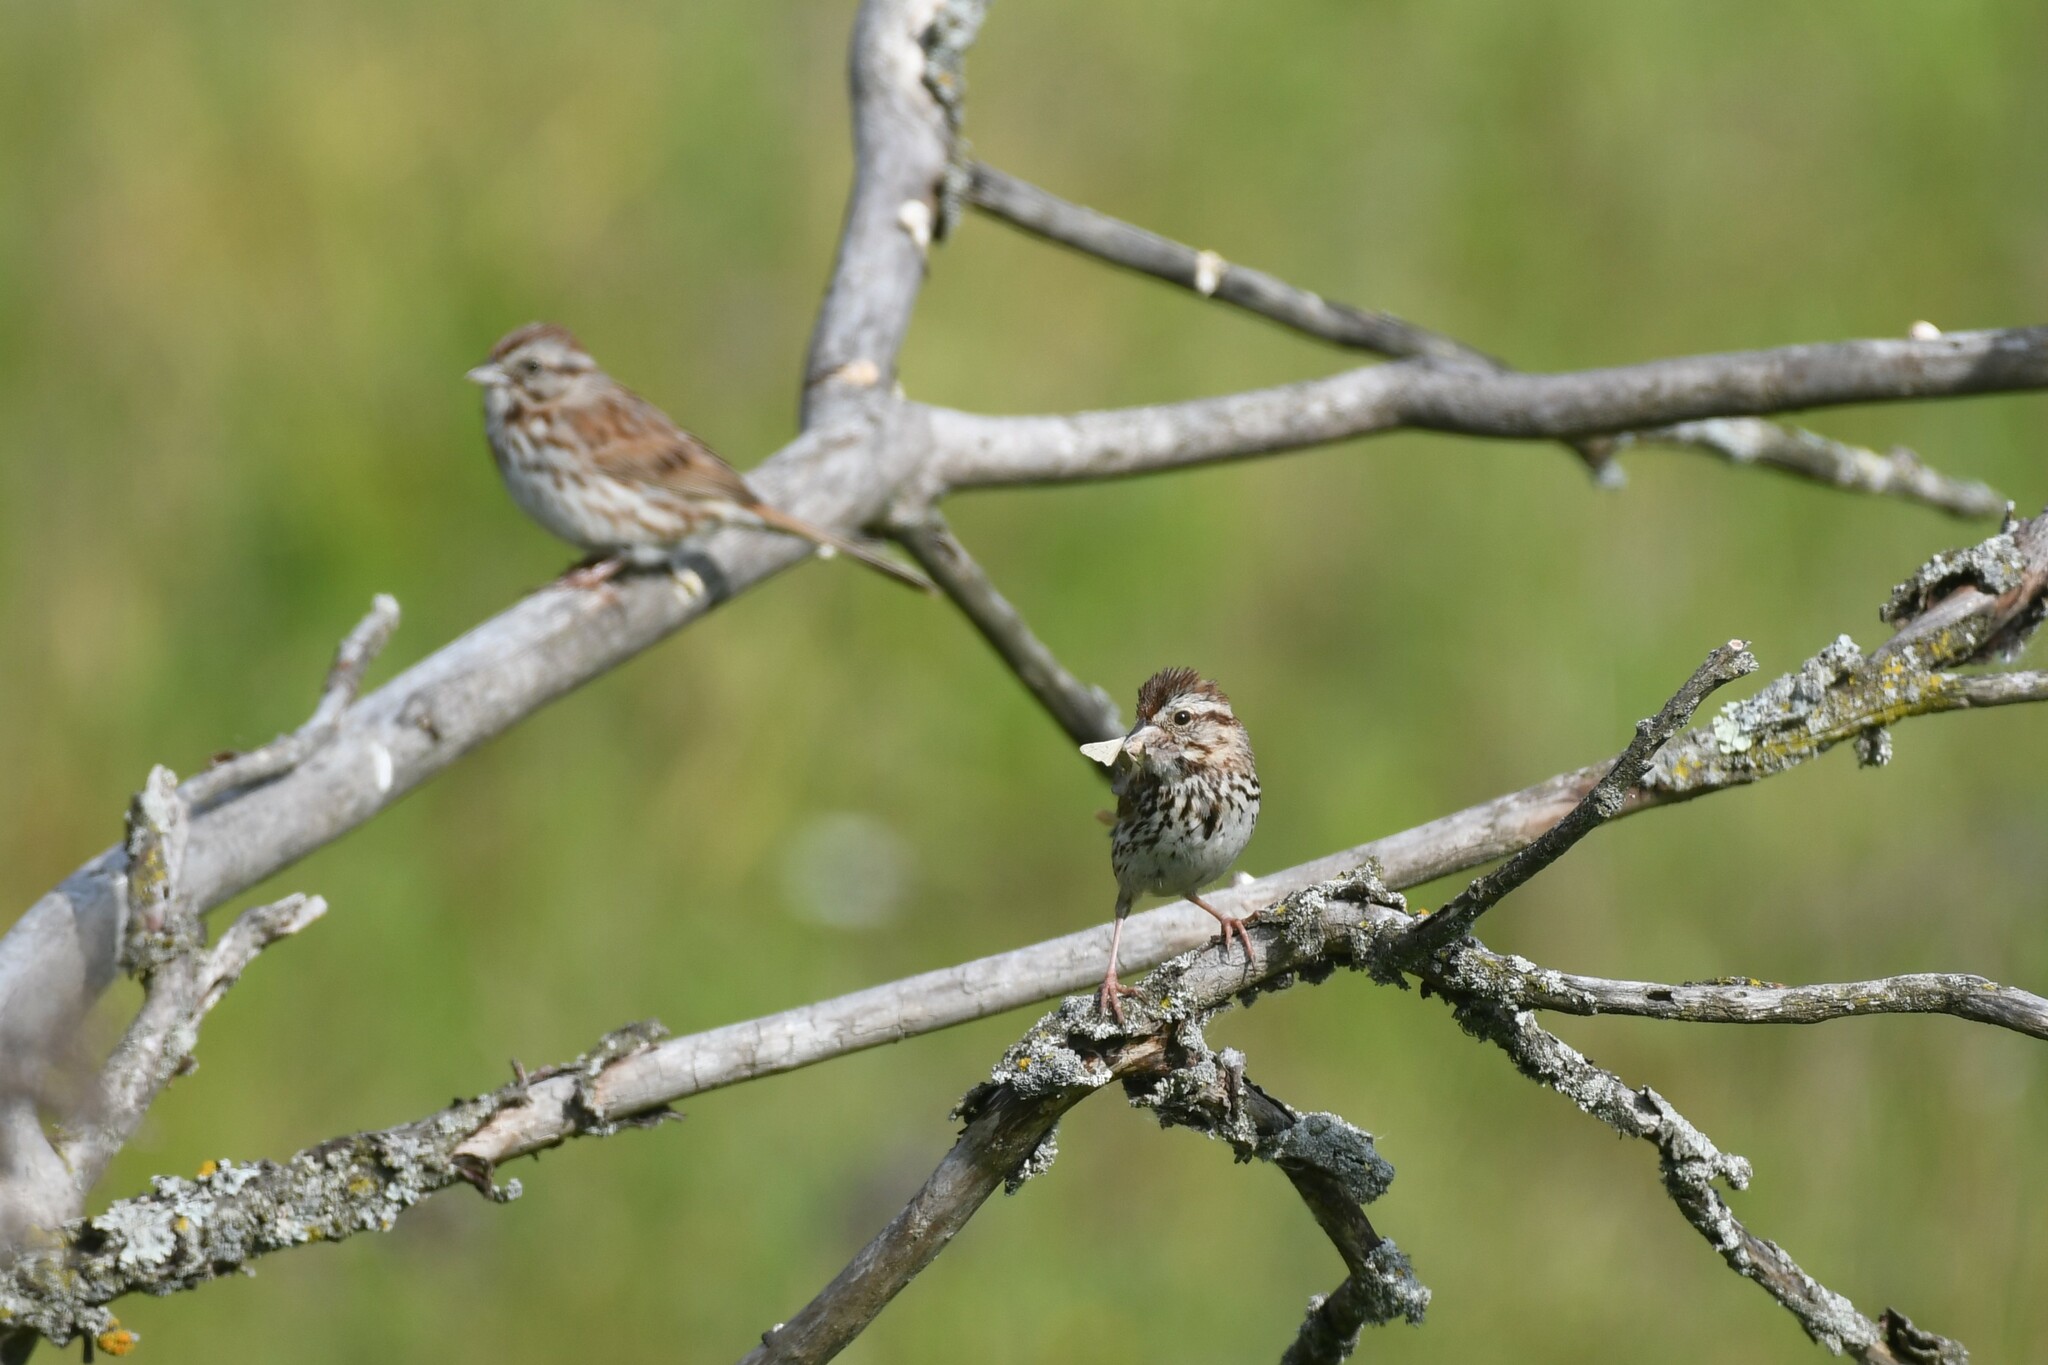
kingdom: Animalia
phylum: Chordata
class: Aves
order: Passeriformes
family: Passerellidae
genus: Melospiza
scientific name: Melospiza melodia
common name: Song sparrow
